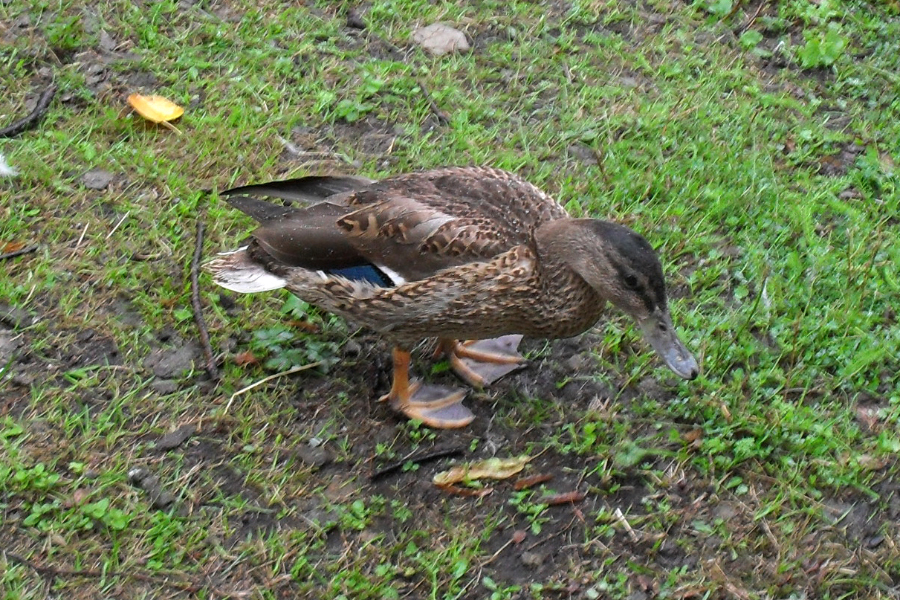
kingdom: Animalia
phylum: Chordata
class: Aves
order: Anseriformes
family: Anatidae
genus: Anas
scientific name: Anas platyrhynchos
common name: Mallard
